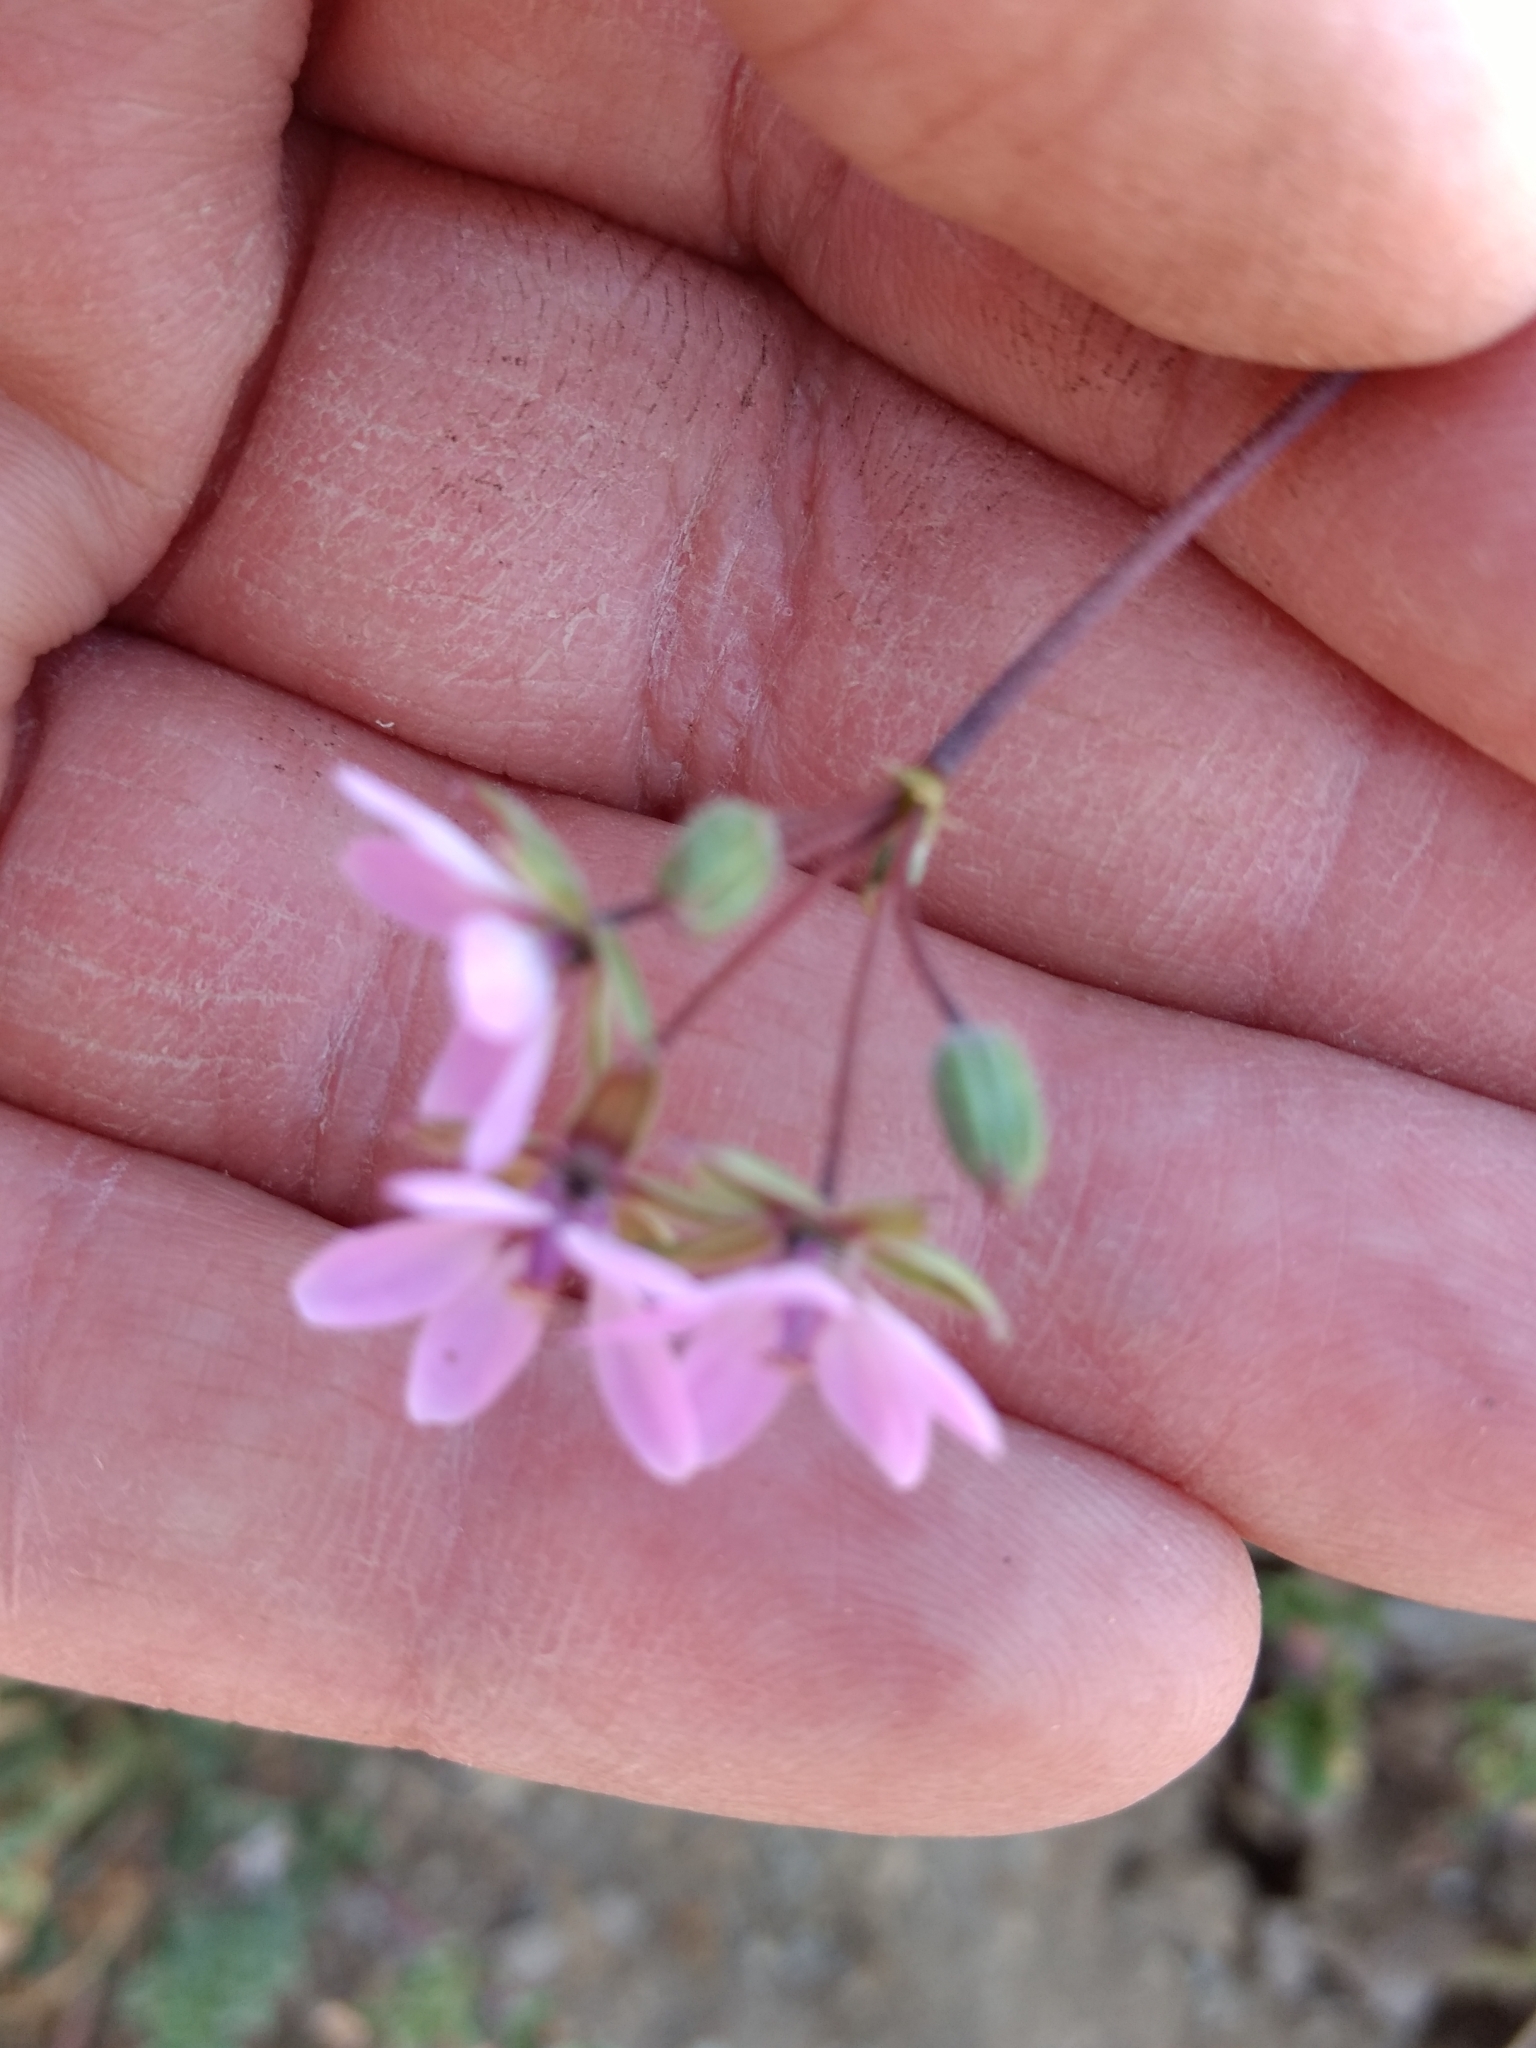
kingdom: Plantae
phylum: Tracheophyta
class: Magnoliopsida
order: Geraniales
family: Geraniaceae
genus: Erodium
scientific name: Erodium cicutarium
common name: Common stork's-bill
